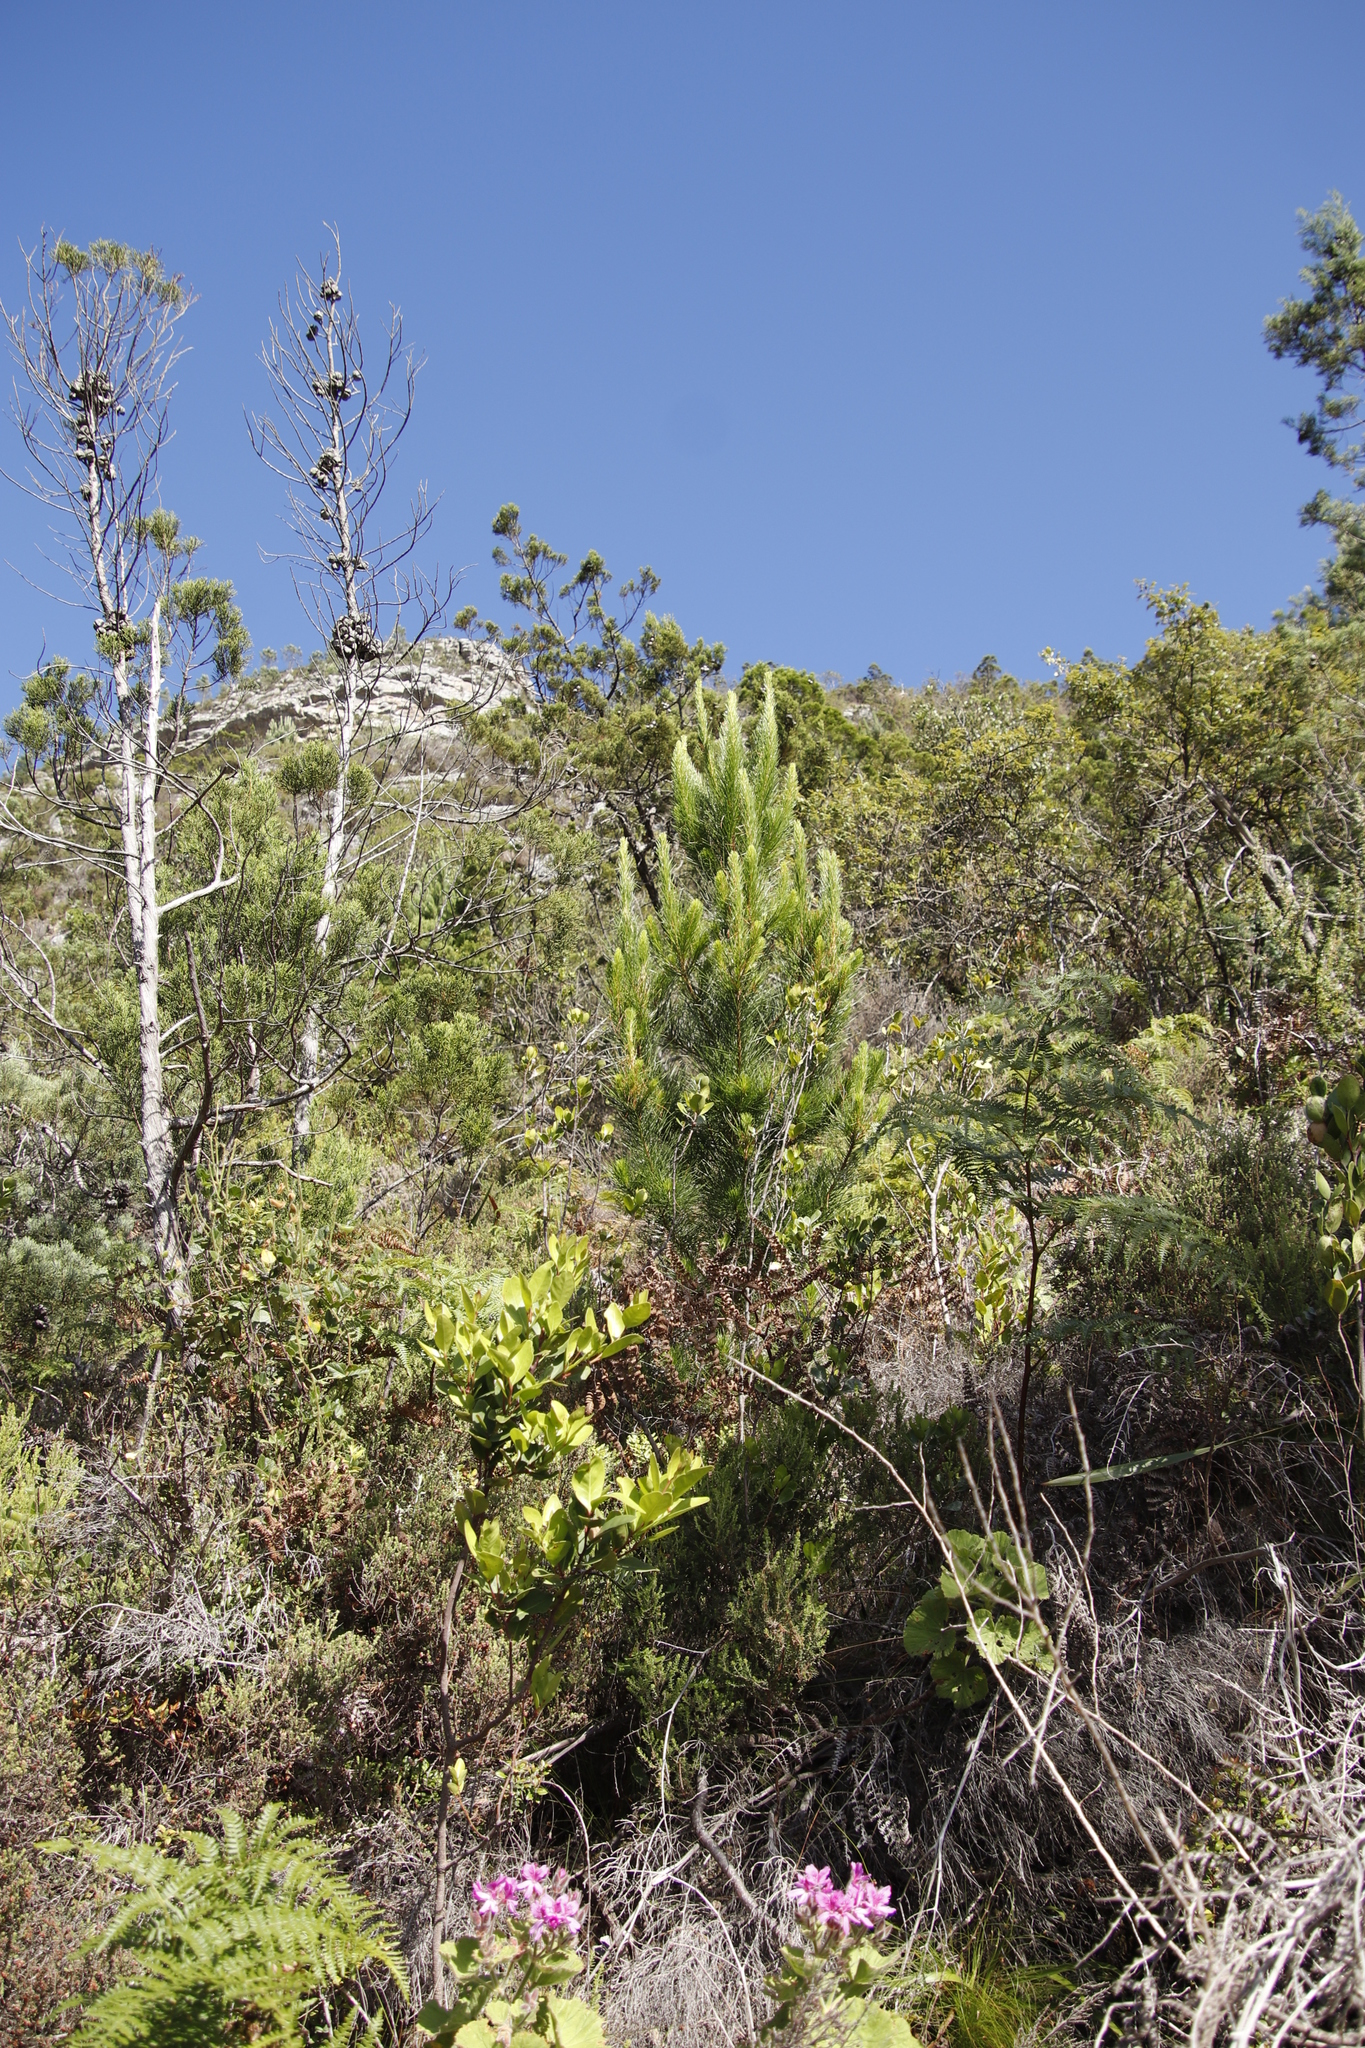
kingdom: Plantae
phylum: Tracheophyta
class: Pinopsida
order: Pinales
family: Pinaceae
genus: Pinus
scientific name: Pinus radiata
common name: Monterey pine
